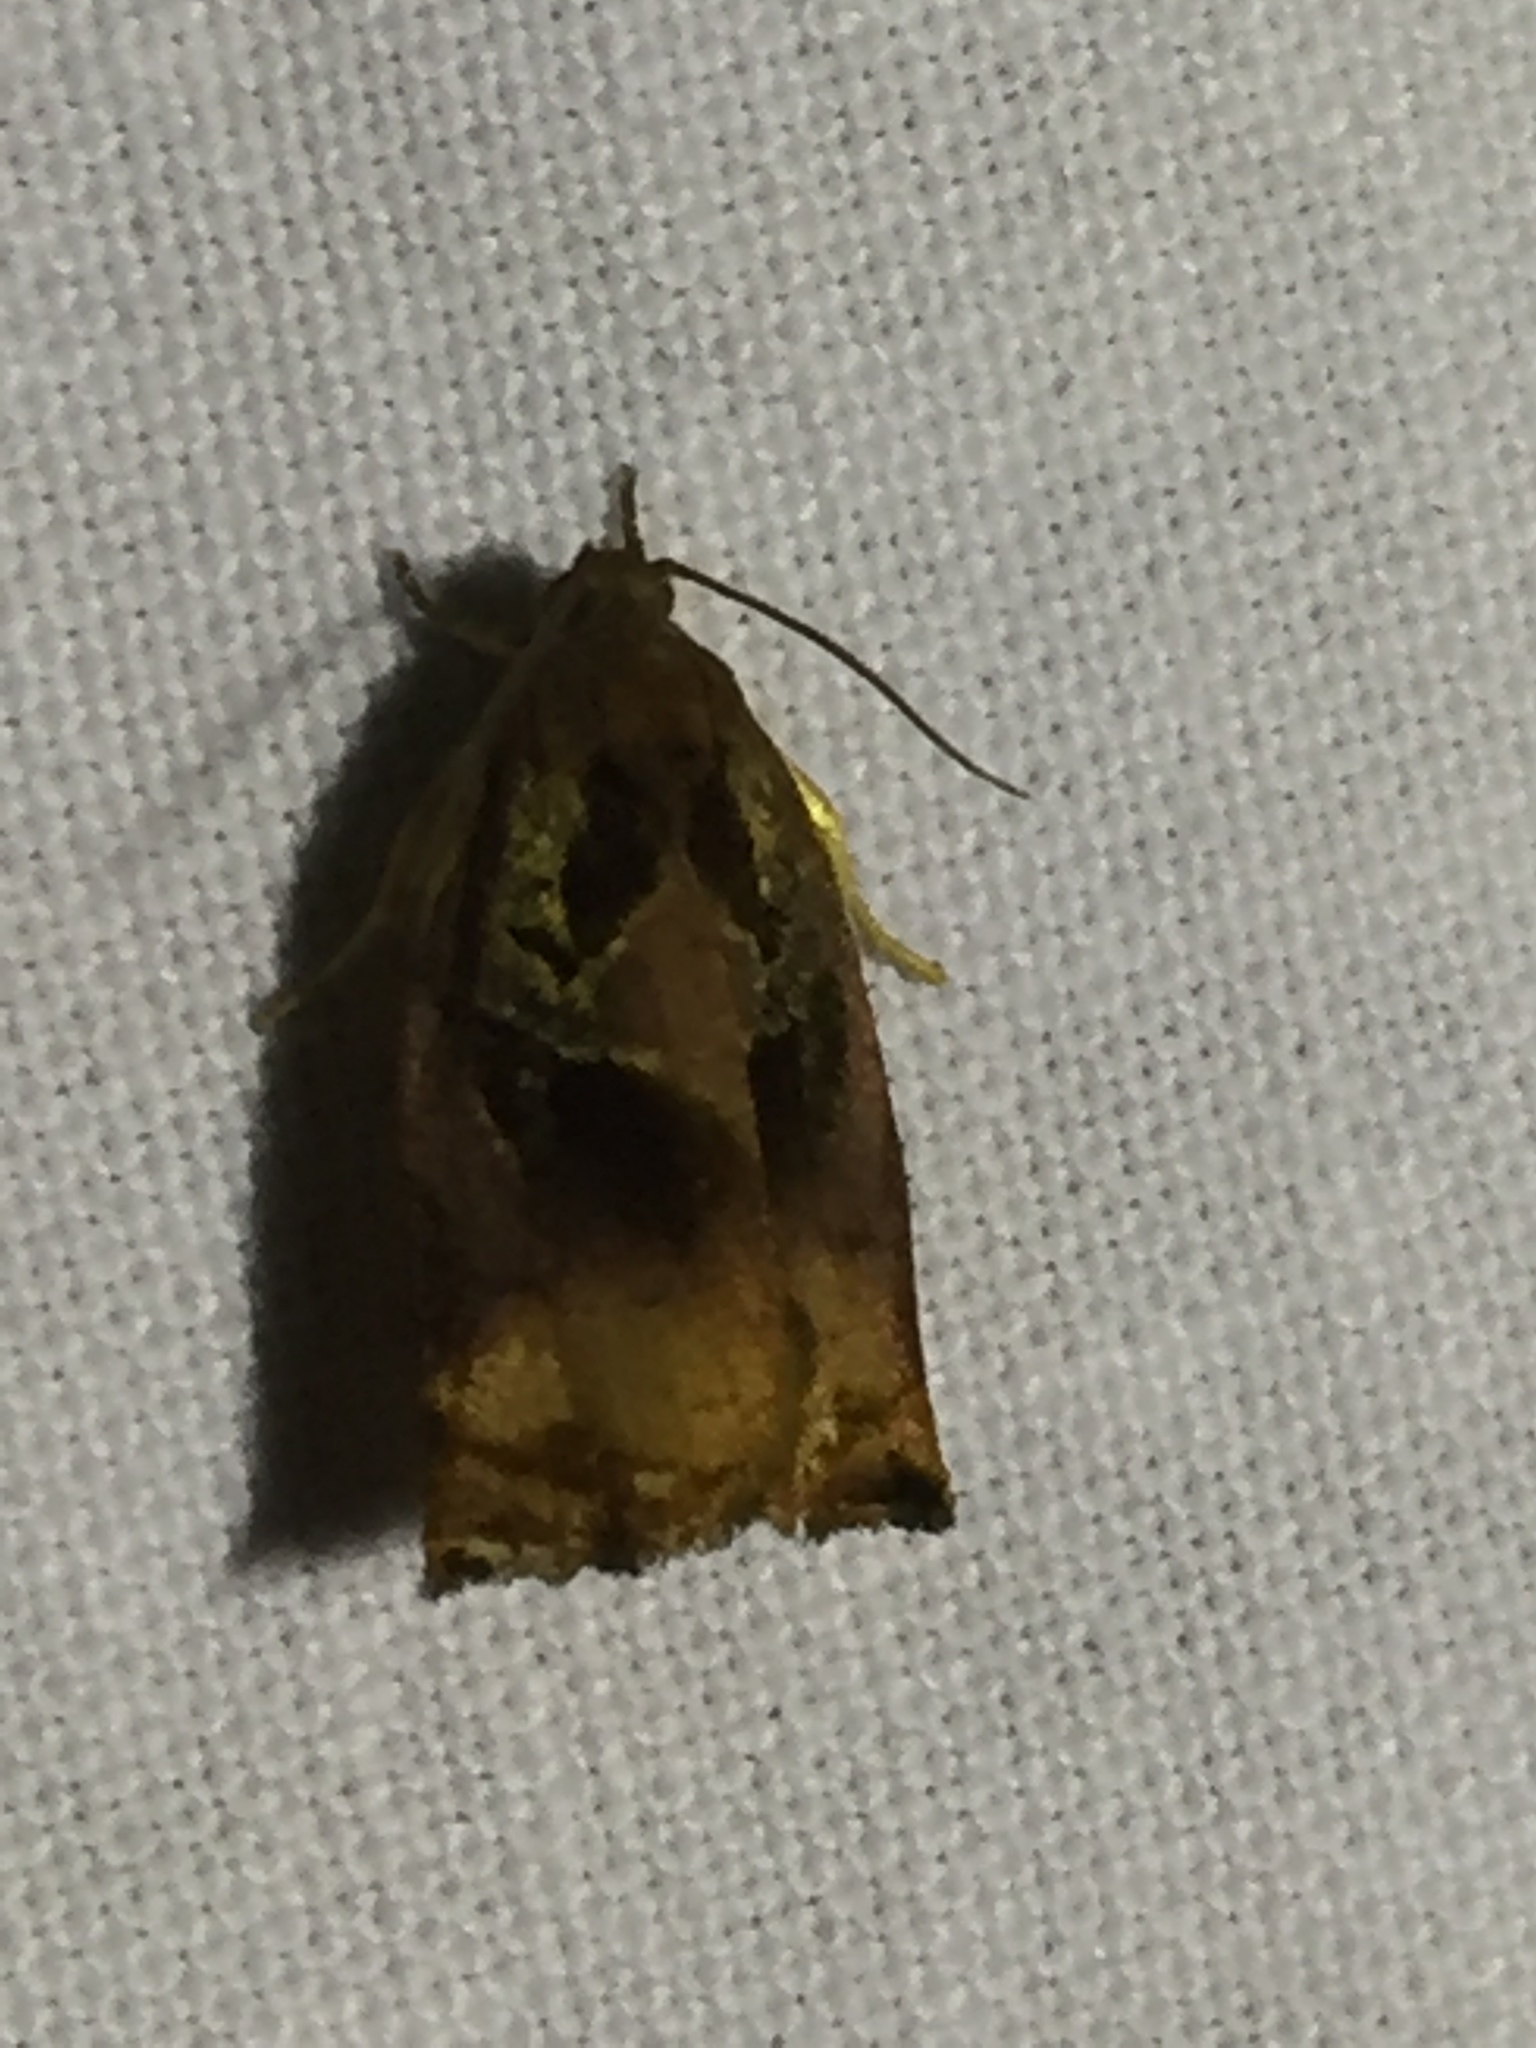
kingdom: Animalia
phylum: Arthropoda
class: Insecta
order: Lepidoptera
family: Tortricidae
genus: Archips
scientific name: Archips podana
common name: Large fruit-tree tortrix
